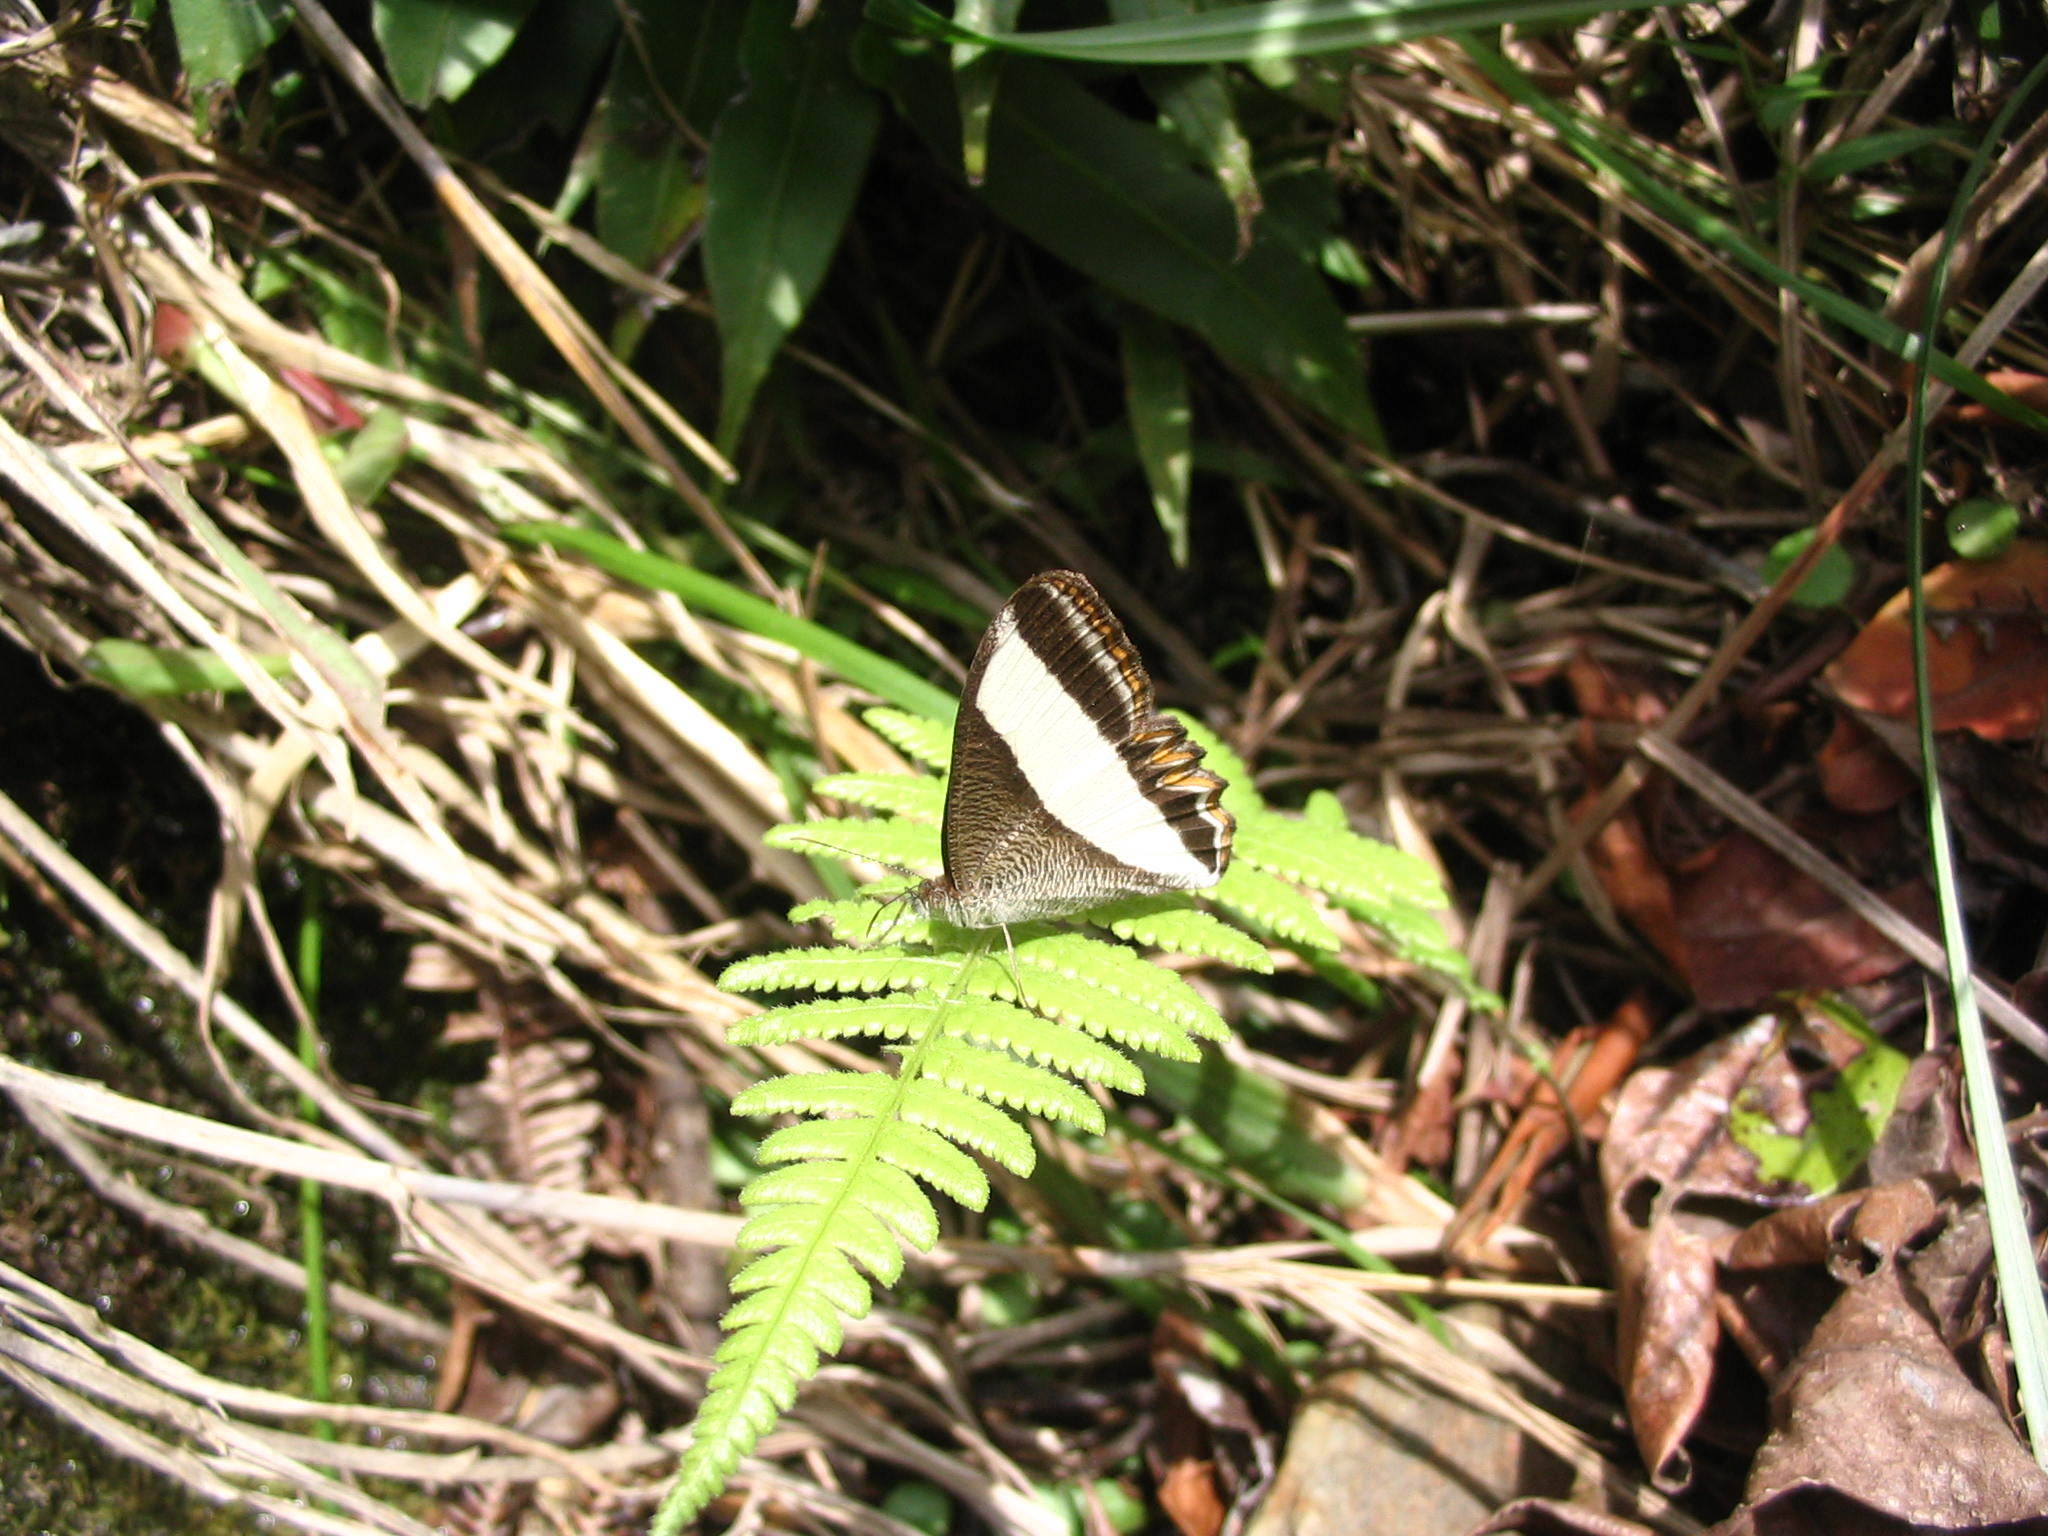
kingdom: Animalia
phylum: Arthropoda
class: Insecta
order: Lepidoptera
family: Nymphalidae
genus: Oressinoma
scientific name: Oressinoma typhla
